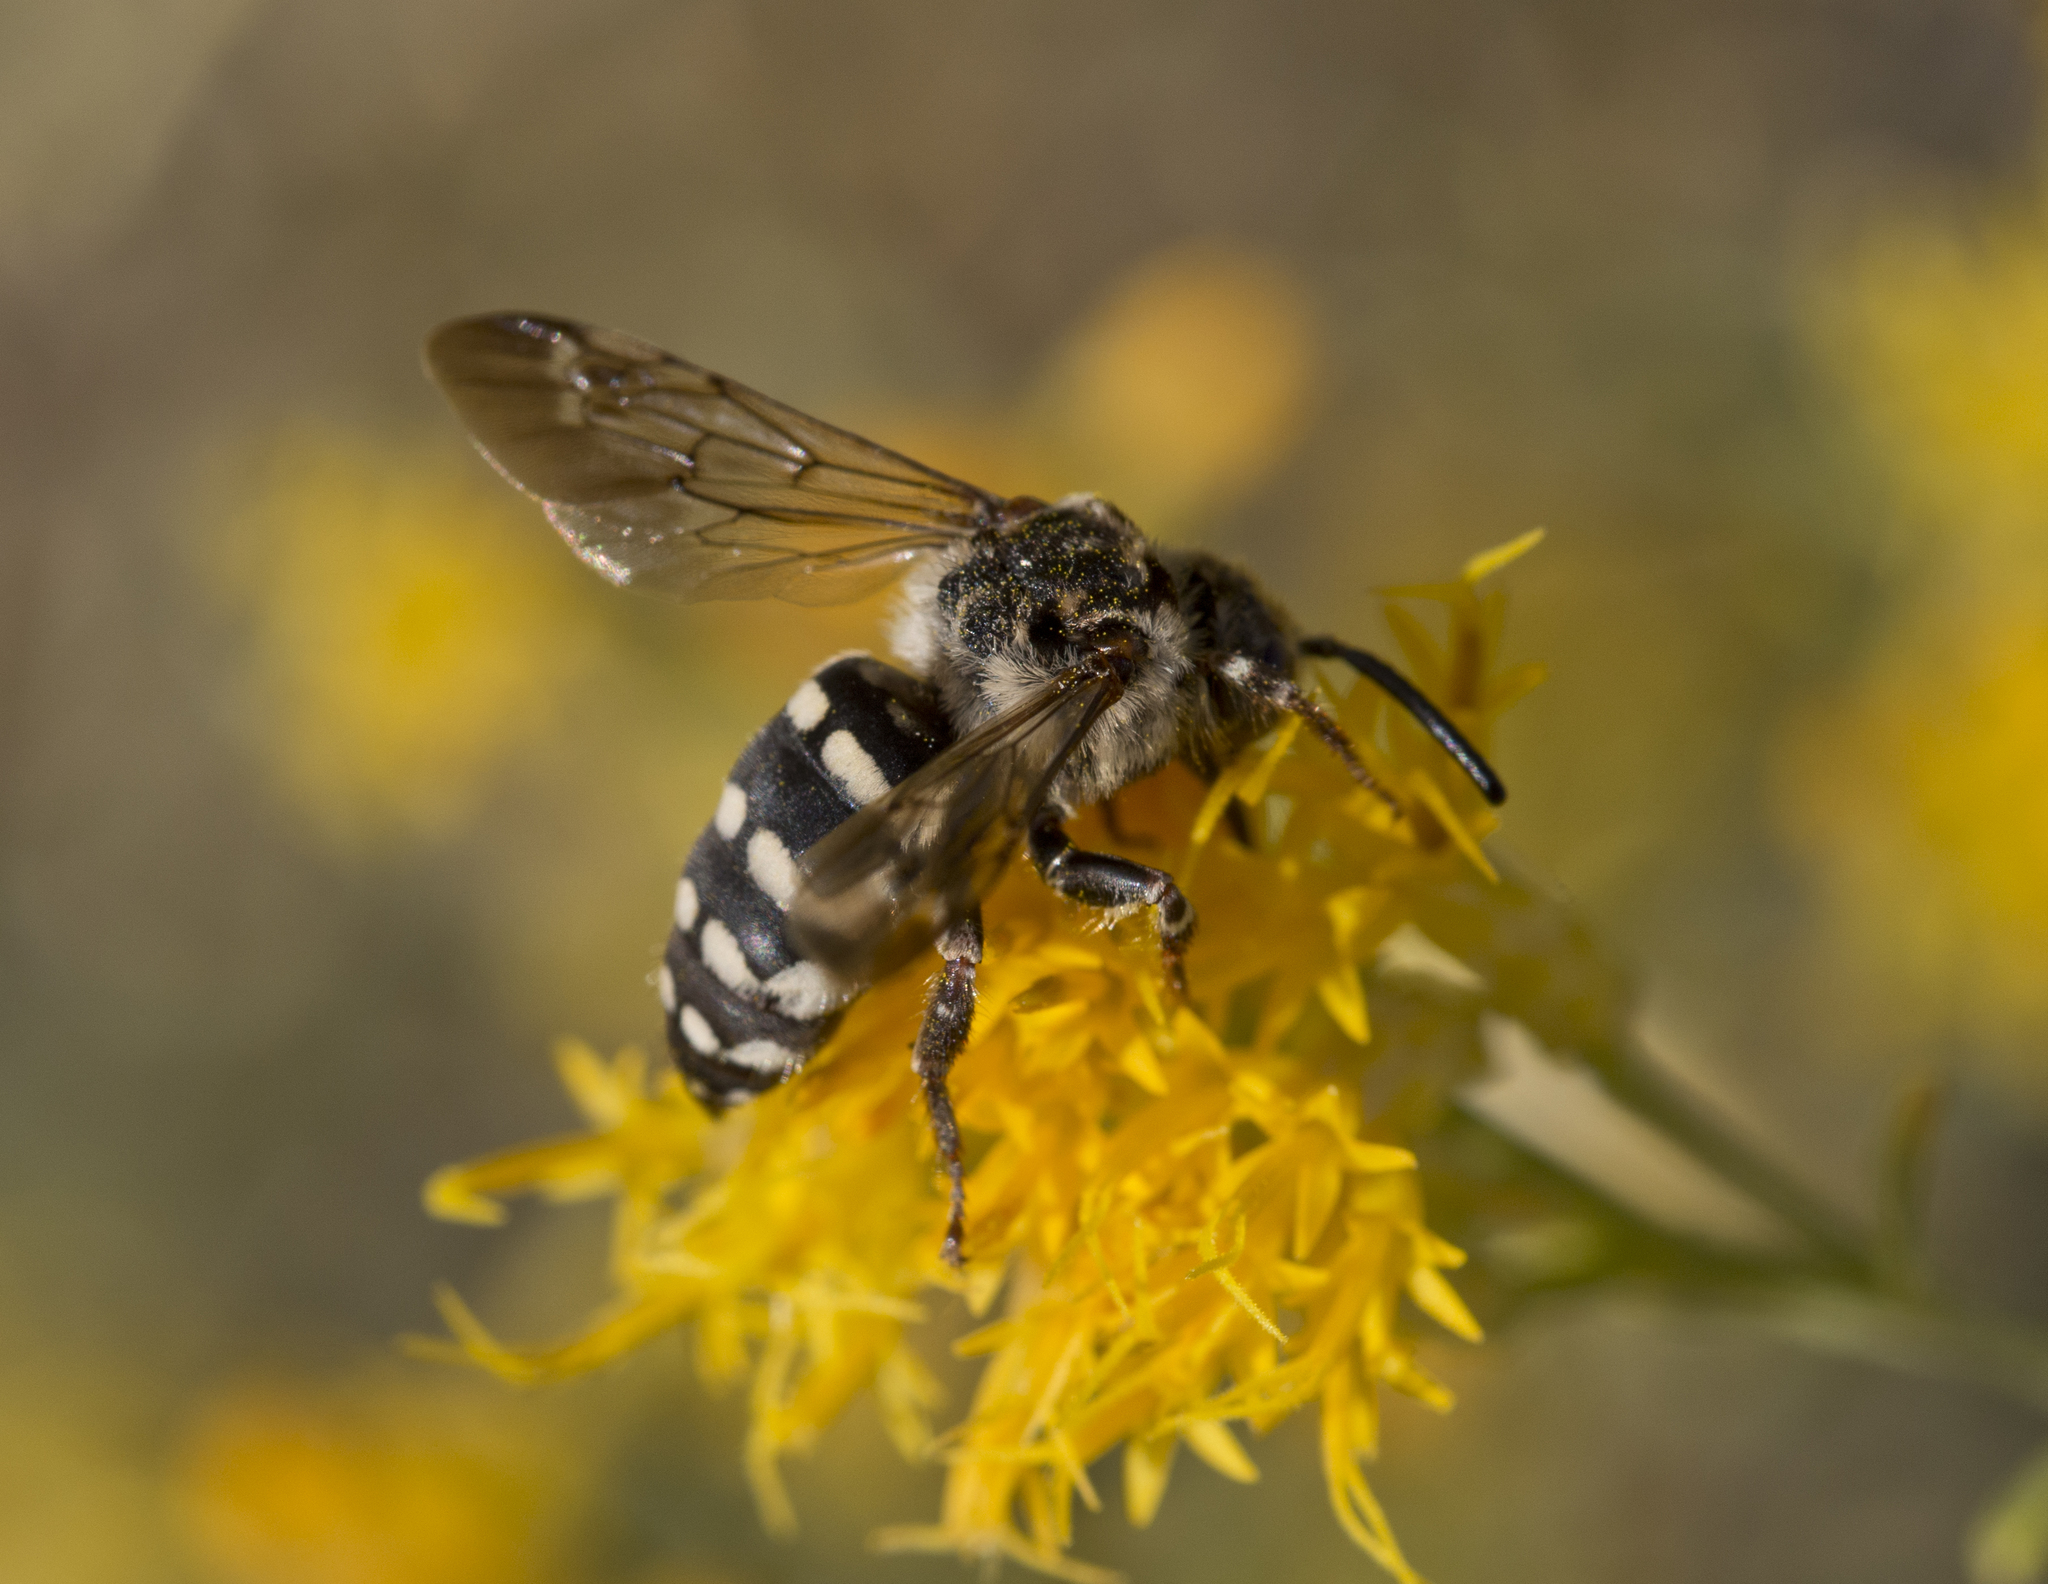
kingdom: Animalia
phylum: Arthropoda
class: Insecta
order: Hymenoptera
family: Apidae
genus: Brachymelecta
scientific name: Brachymelecta californica
